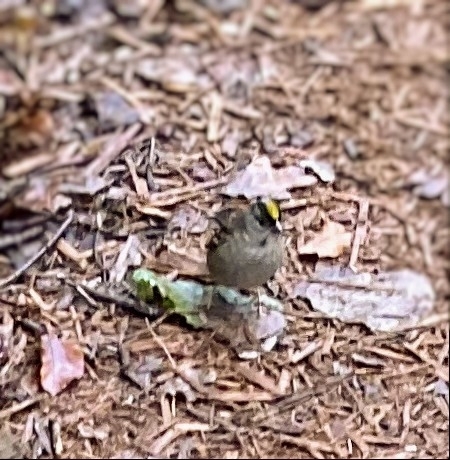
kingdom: Animalia
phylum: Chordata
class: Aves
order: Passeriformes
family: Passerellidae
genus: Zonotrichia
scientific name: Zonotrichia atricapilla
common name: Golden-crowned sparrow
